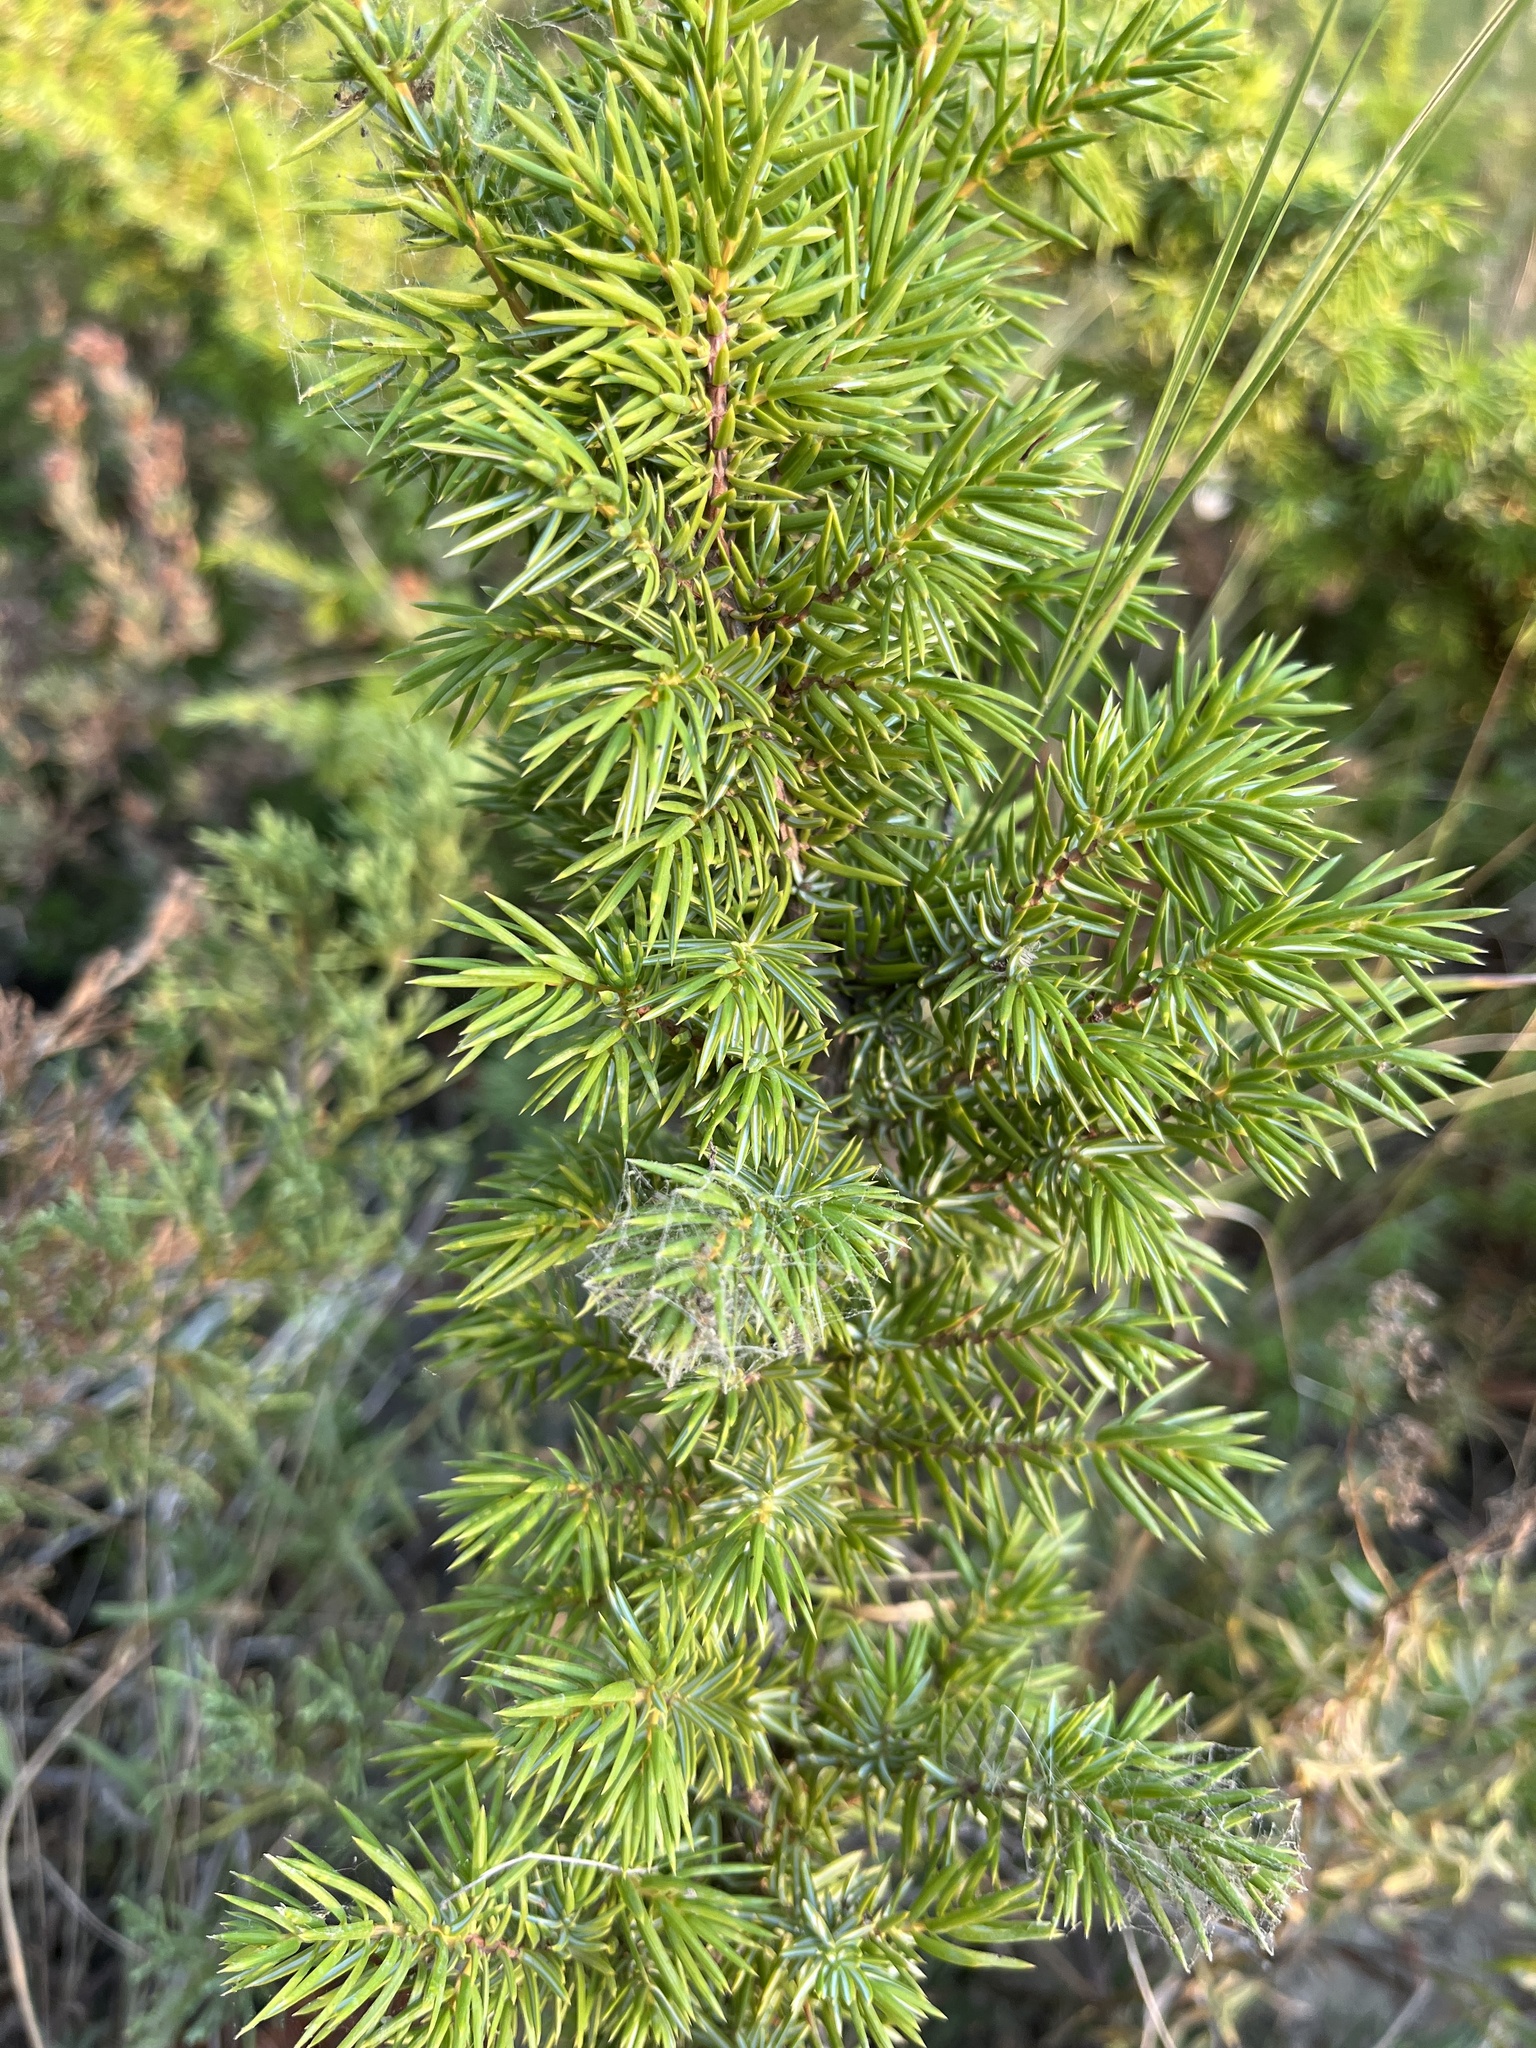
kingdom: Plantae
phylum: Tracheophyta
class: Pinopsida
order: Pinales
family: Cupressaceae
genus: Juniperus
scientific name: Juniperus communis
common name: Common juniper
